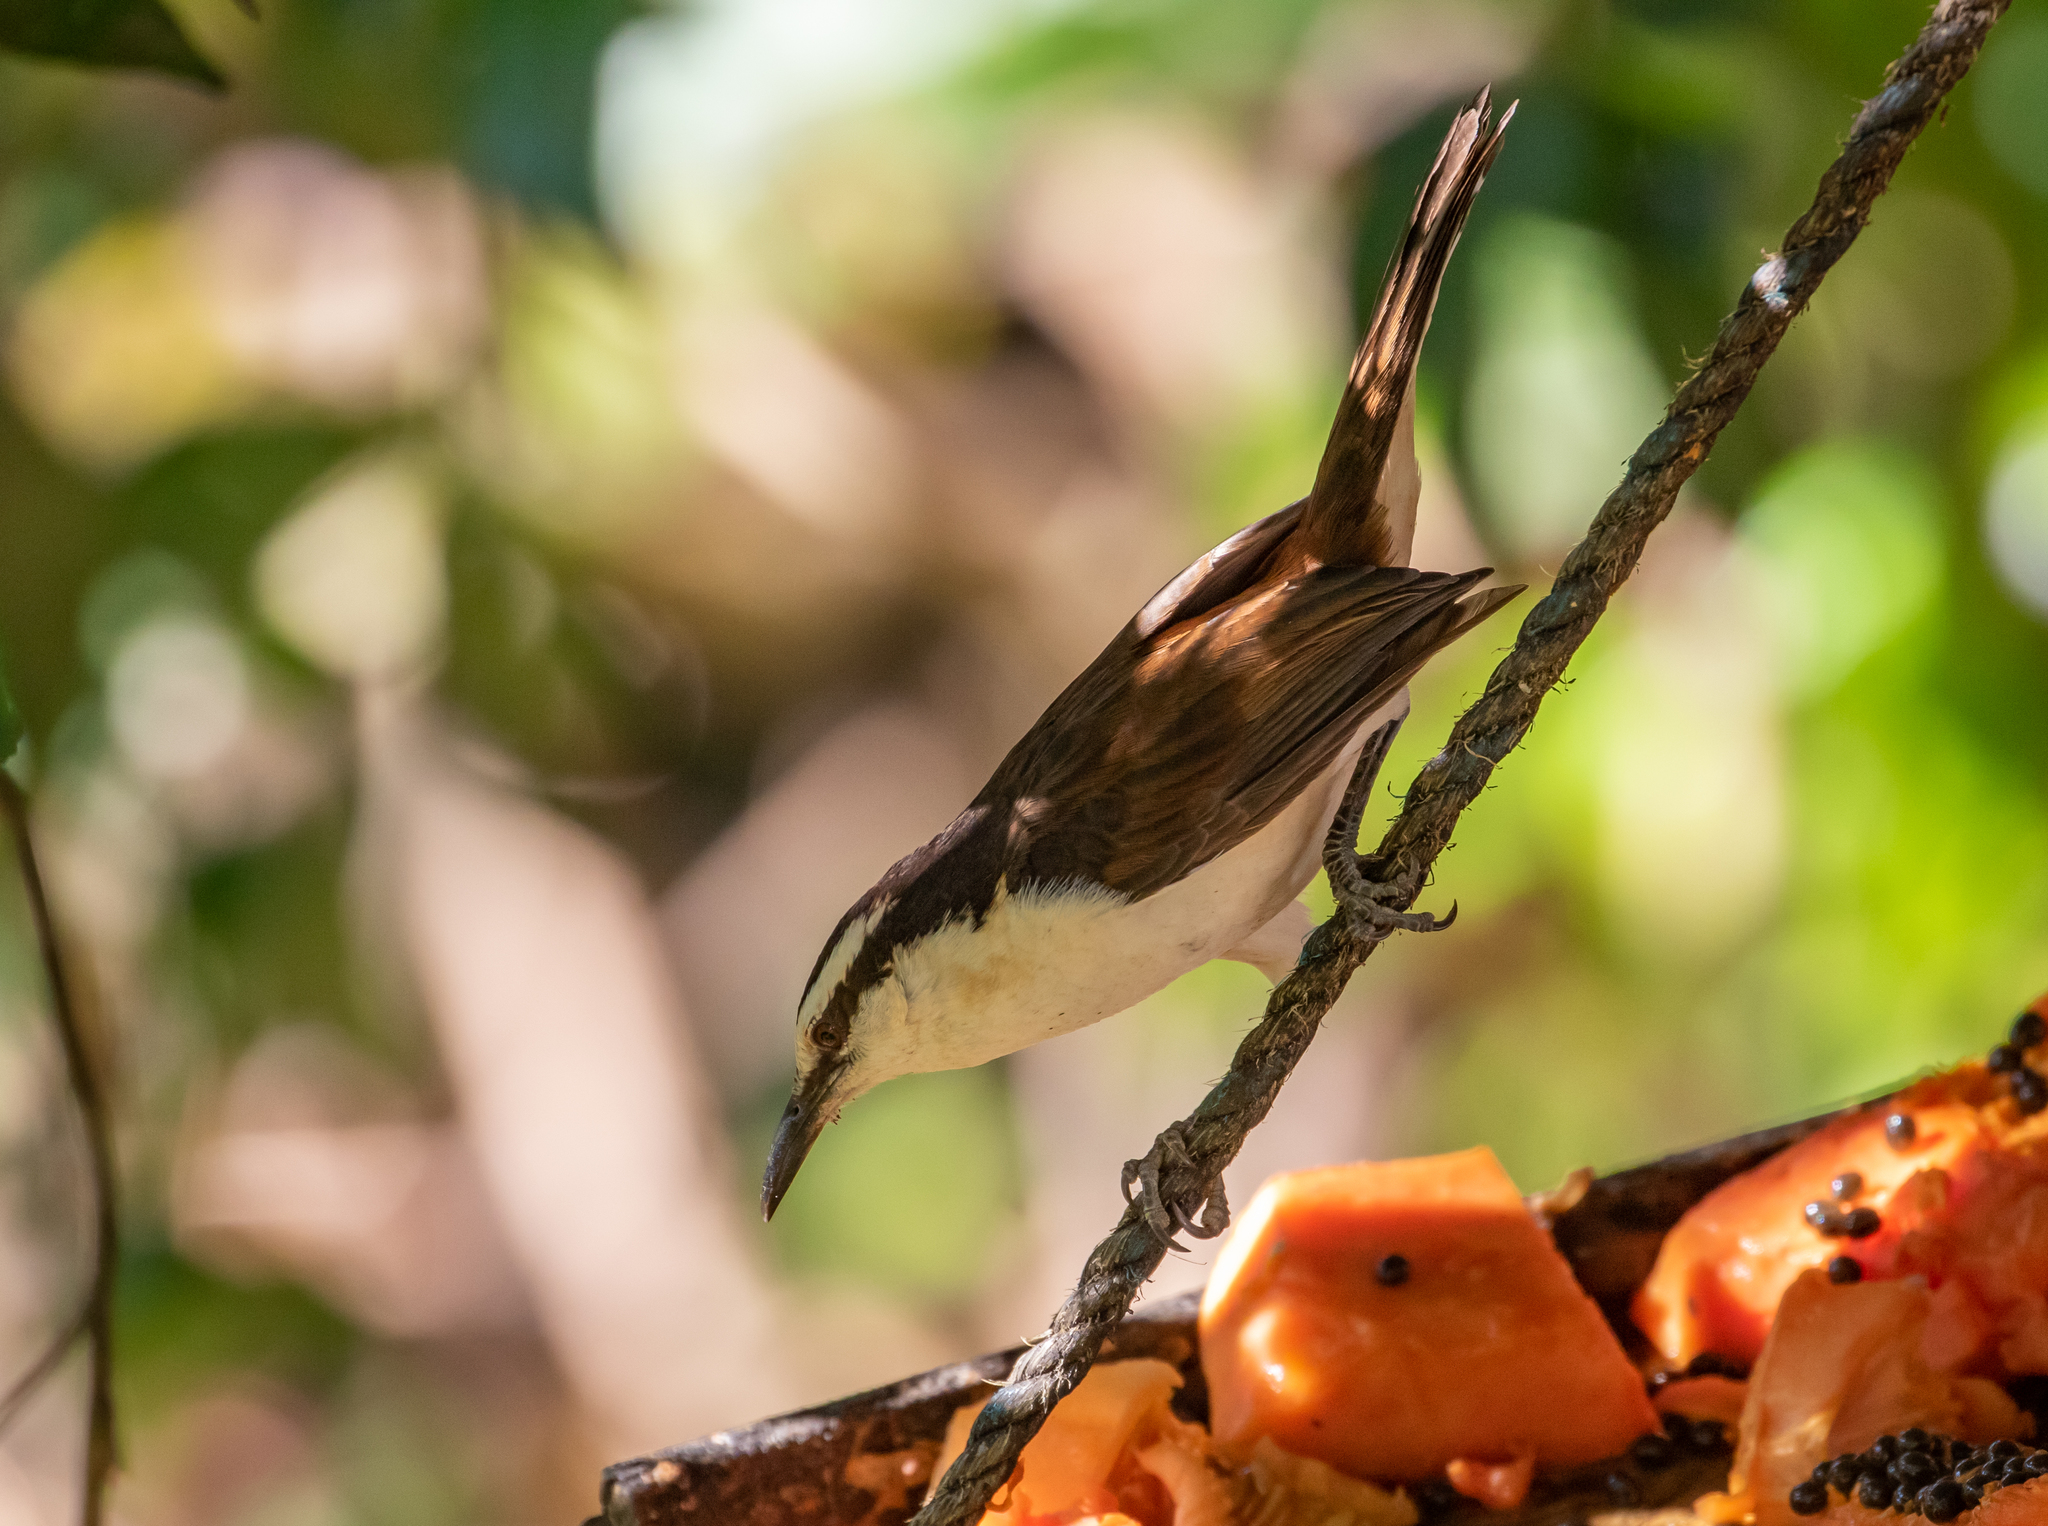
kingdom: Animalia
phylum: Chordata
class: Aves
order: Passeriformes
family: Troglodytidae
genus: Campylorhynchus
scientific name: Campylorhynchus griseus
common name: Bicolored wren
